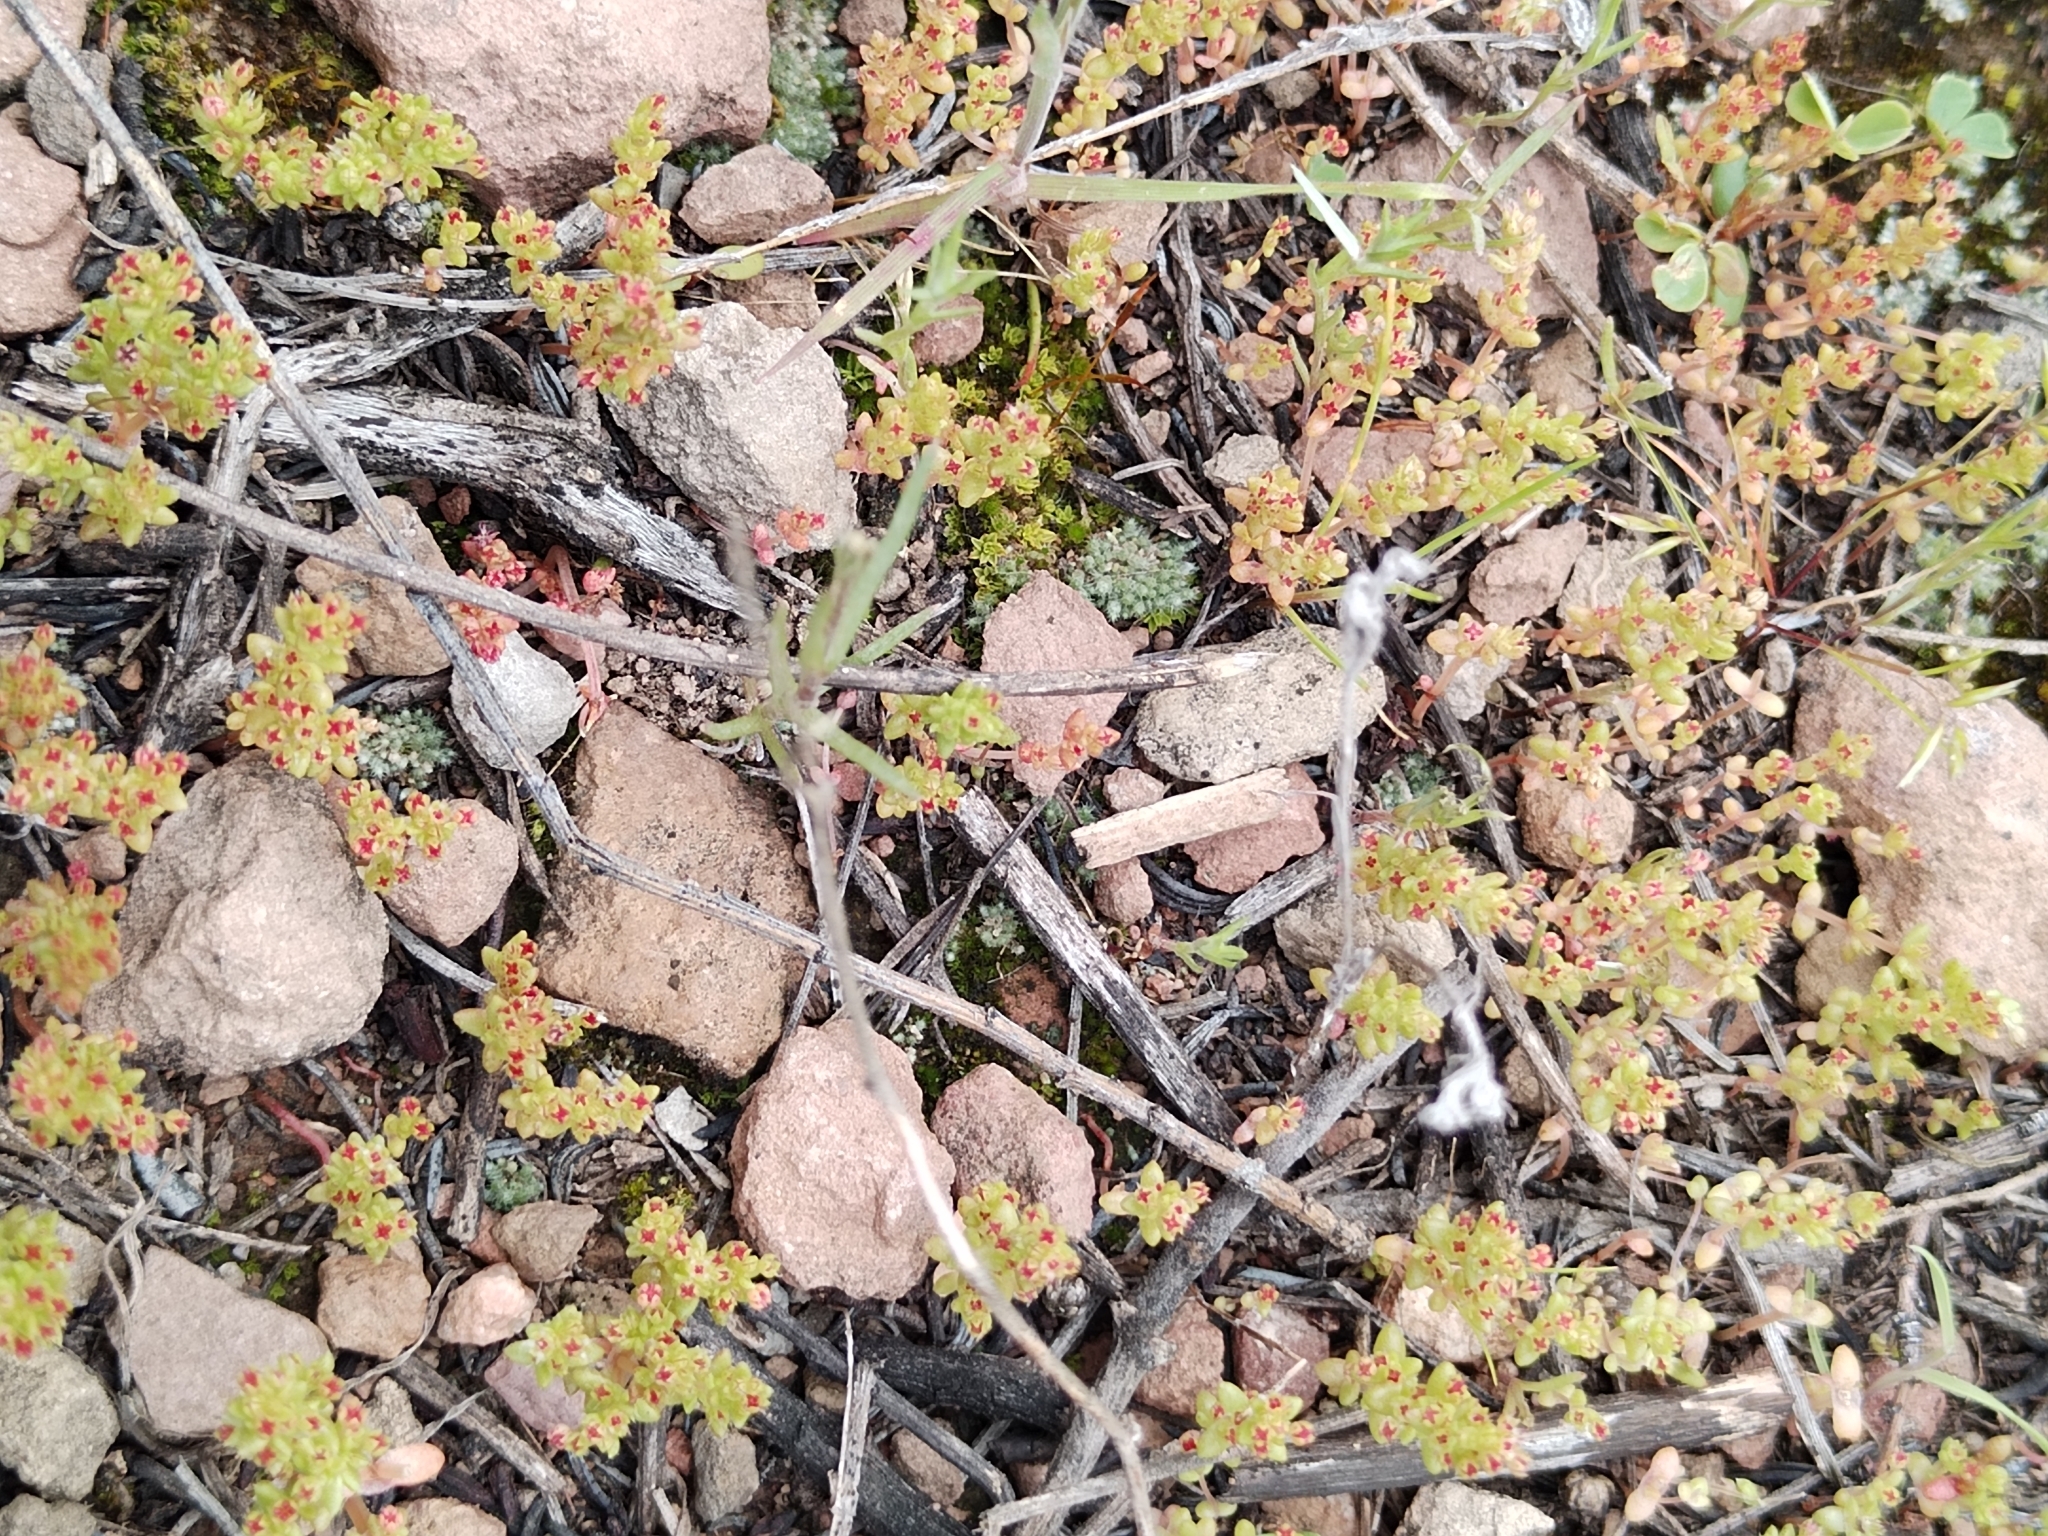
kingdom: Plantae
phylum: Tracheophyta
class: Magnoliopsida
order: Saxifragales
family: Crassulaceae
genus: Crassula
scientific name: Crassula connata
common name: Erect pygmyweed
